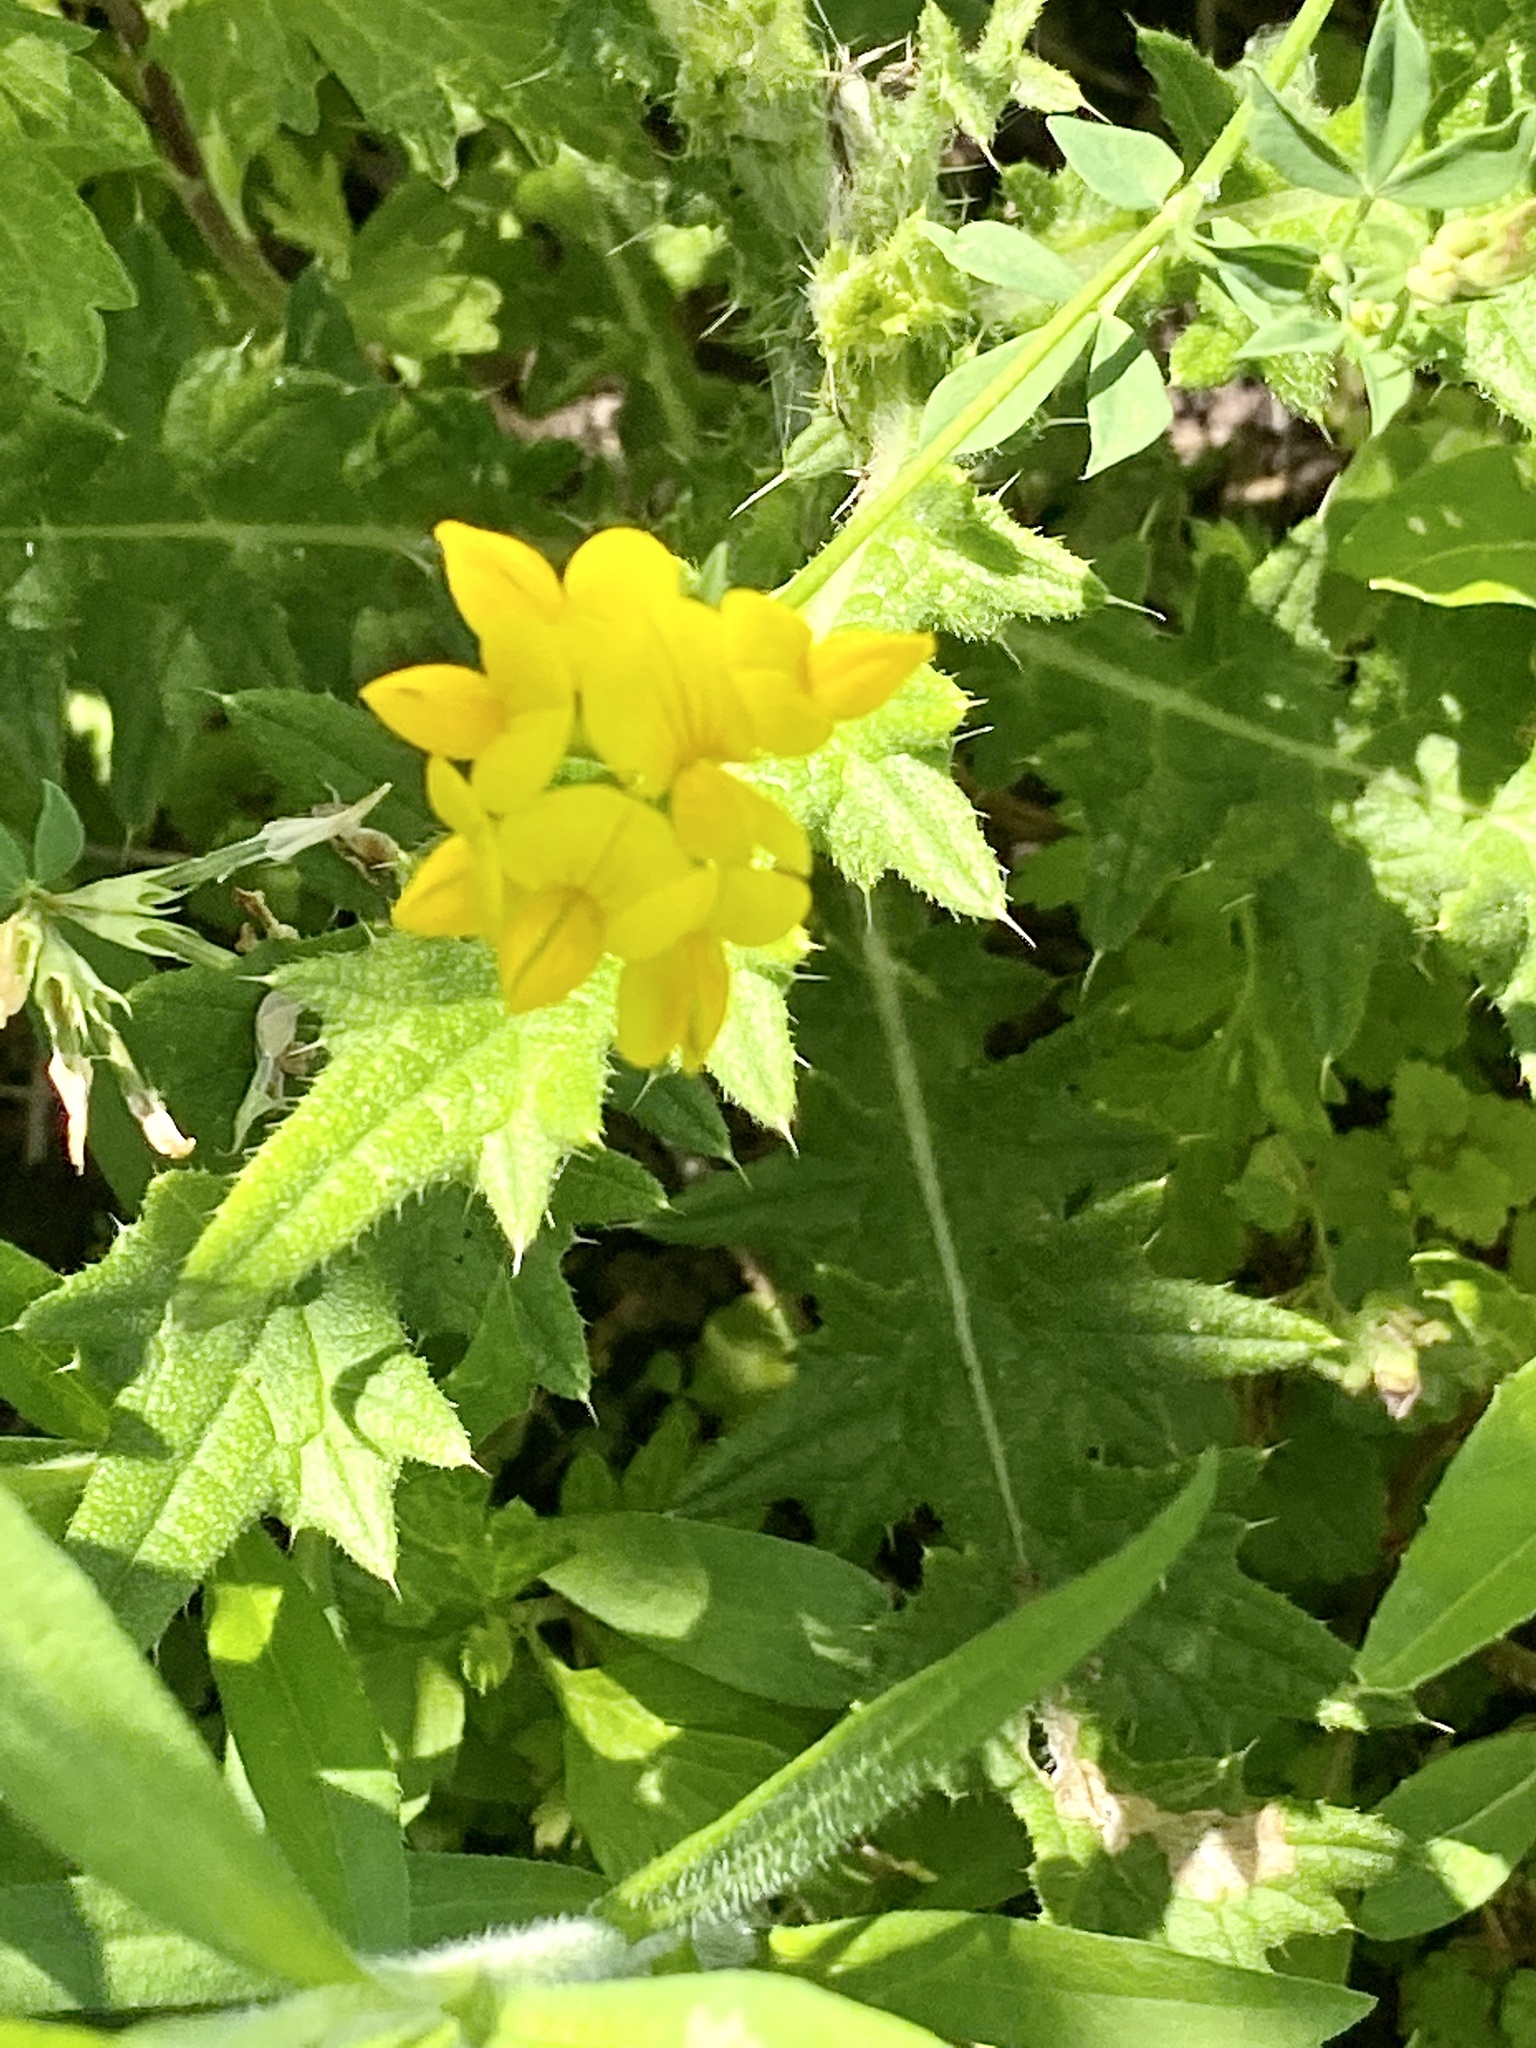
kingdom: Plantae
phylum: Tracheophyta
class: Magnoliopsida
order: Fabales
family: Fabaceae
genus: Lotus
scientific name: Lotus corniculatus
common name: Common bird's-foot-trefoil
